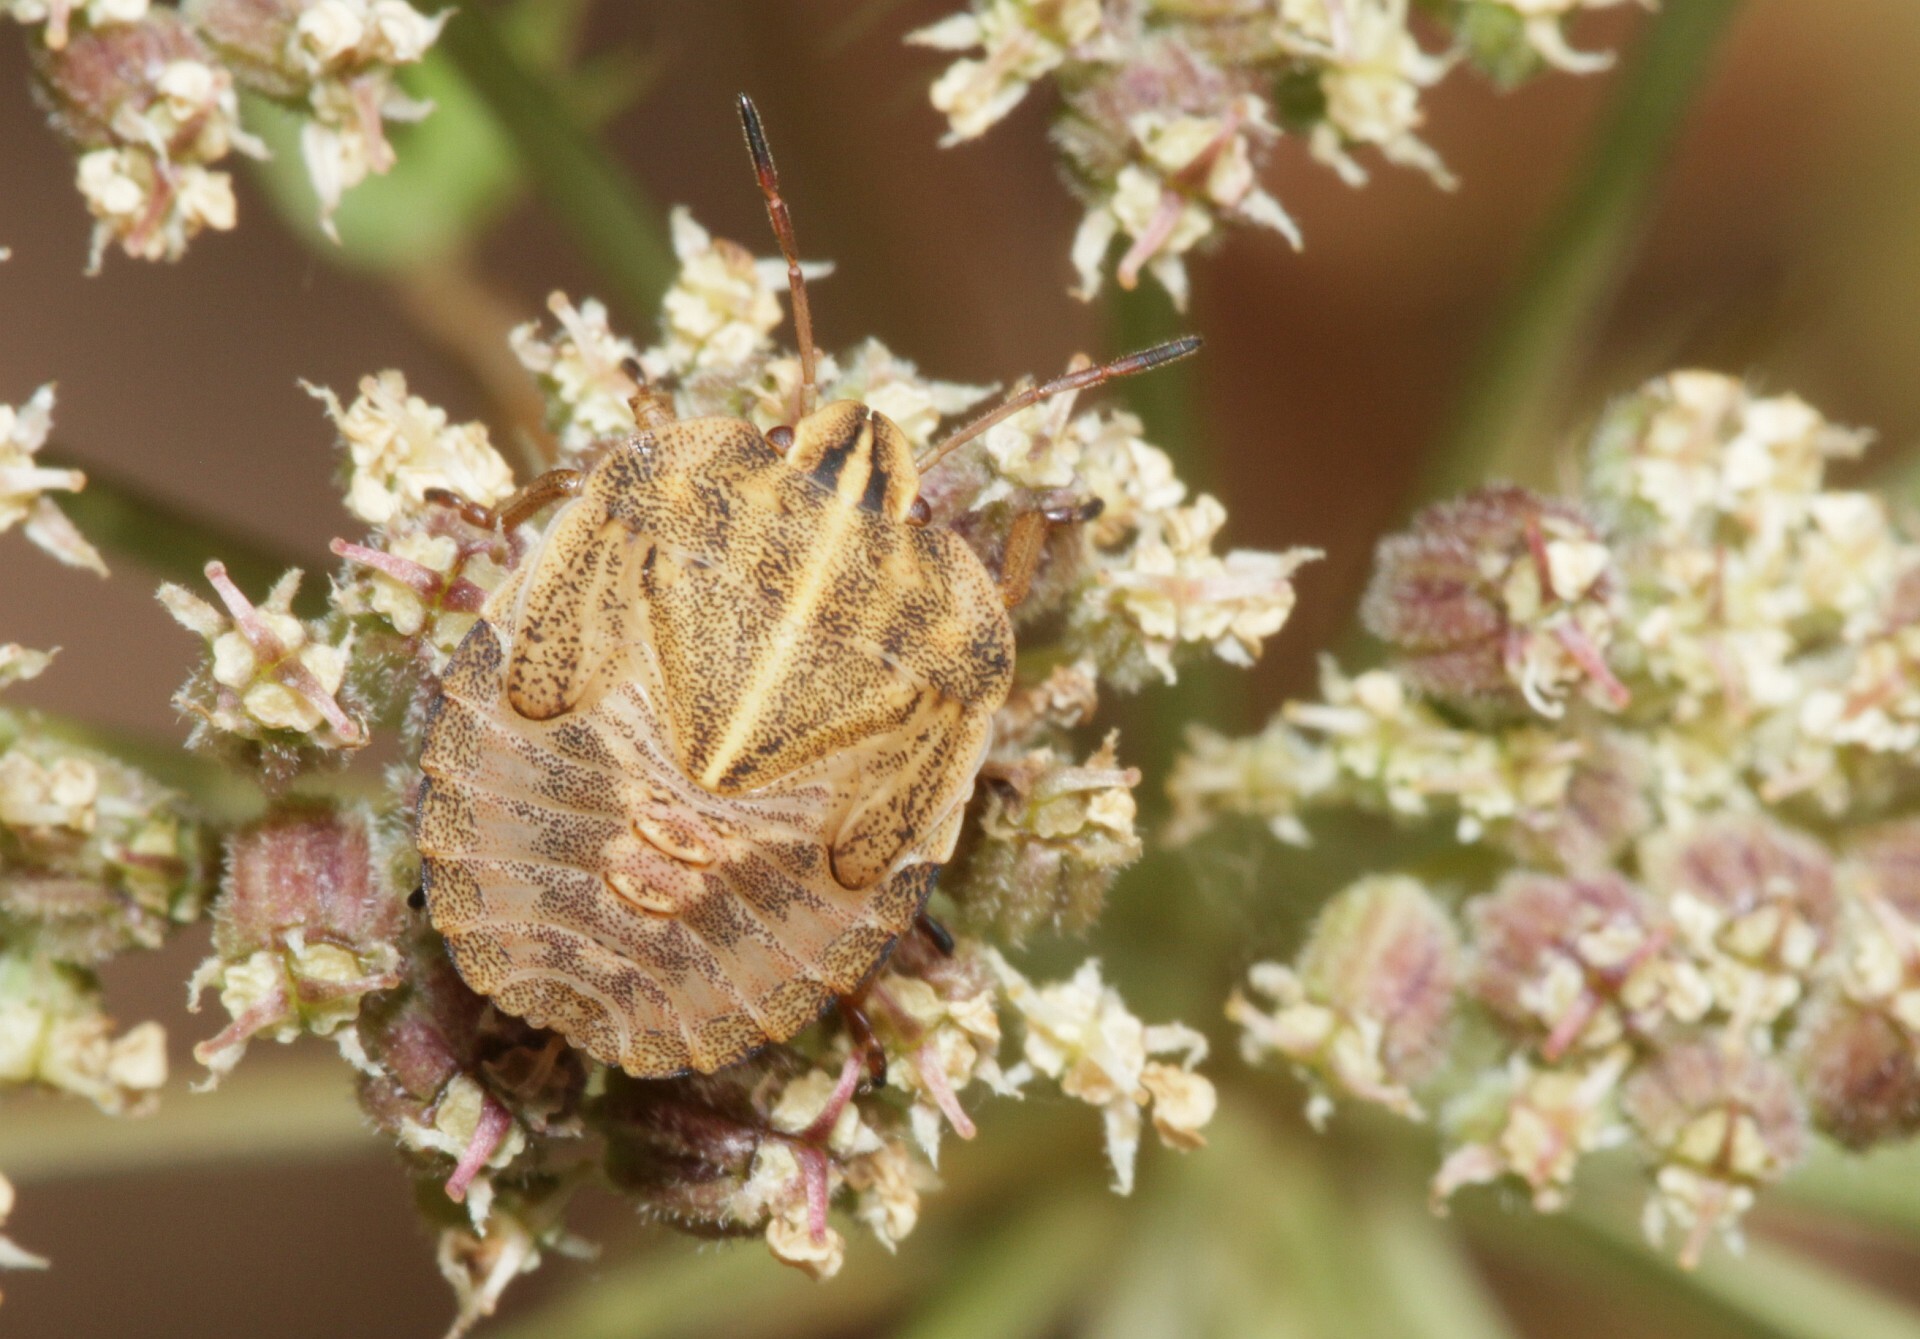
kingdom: Animalia
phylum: Arthropoda
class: Insecta
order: Hemiptera
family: Pentatomidae
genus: Graphosoma
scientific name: Graphosoma italicum
